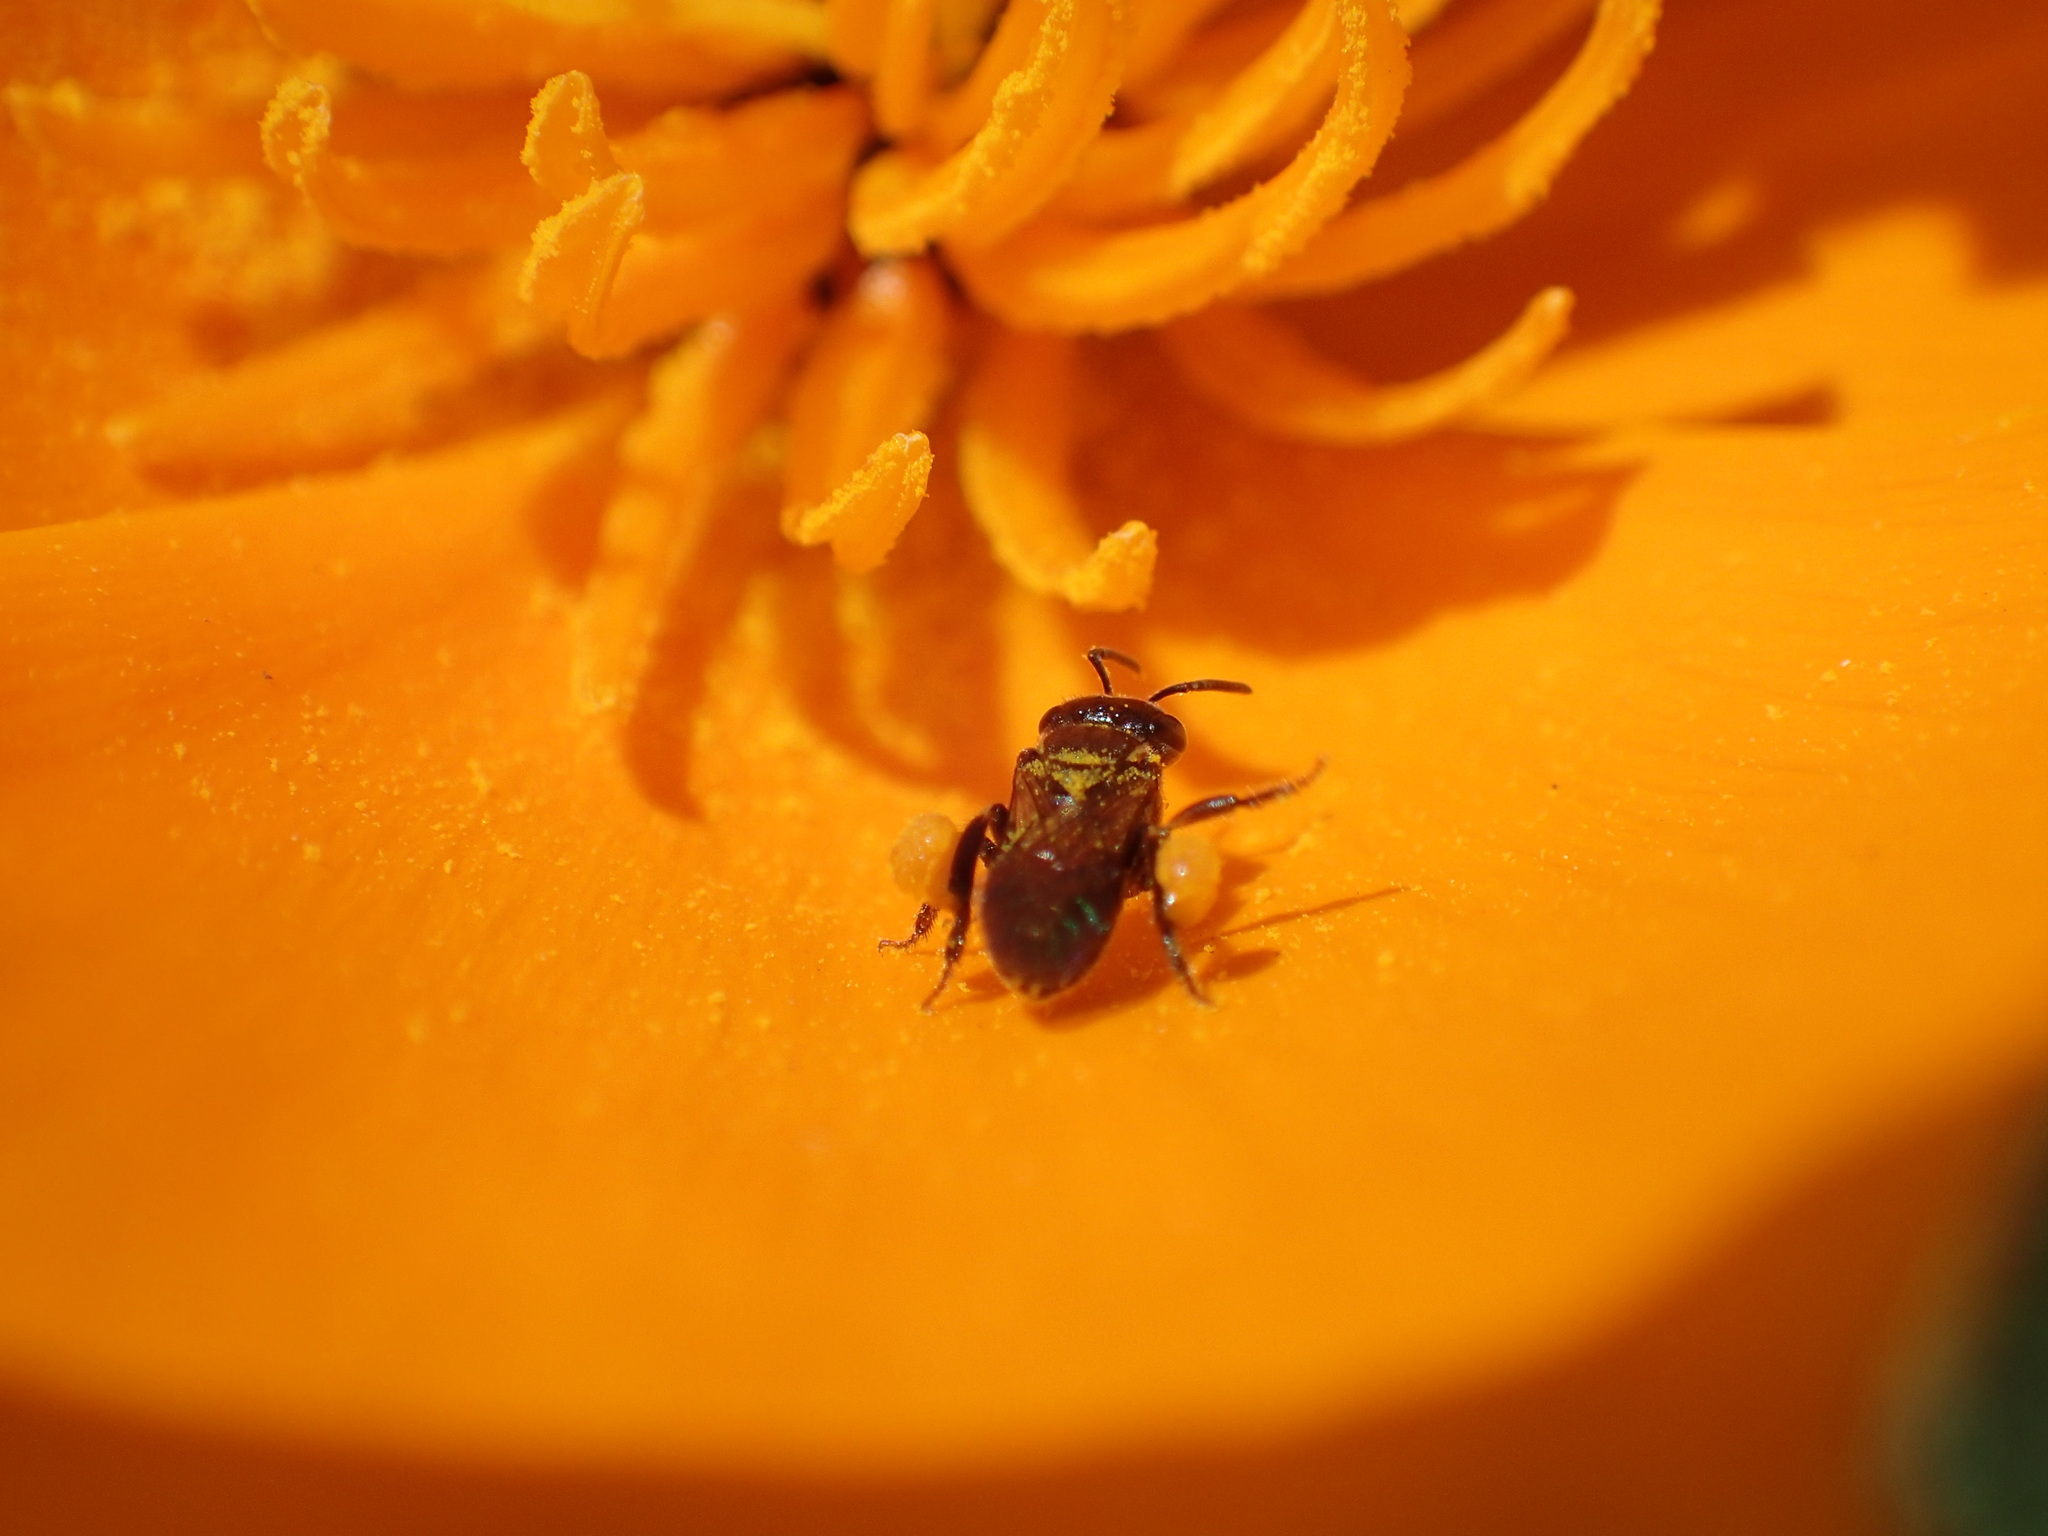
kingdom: Animalia
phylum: Arthropoda
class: Insecta
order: Hymenoptera
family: Apidae
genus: Plebeia
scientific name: Plebeia emerina
